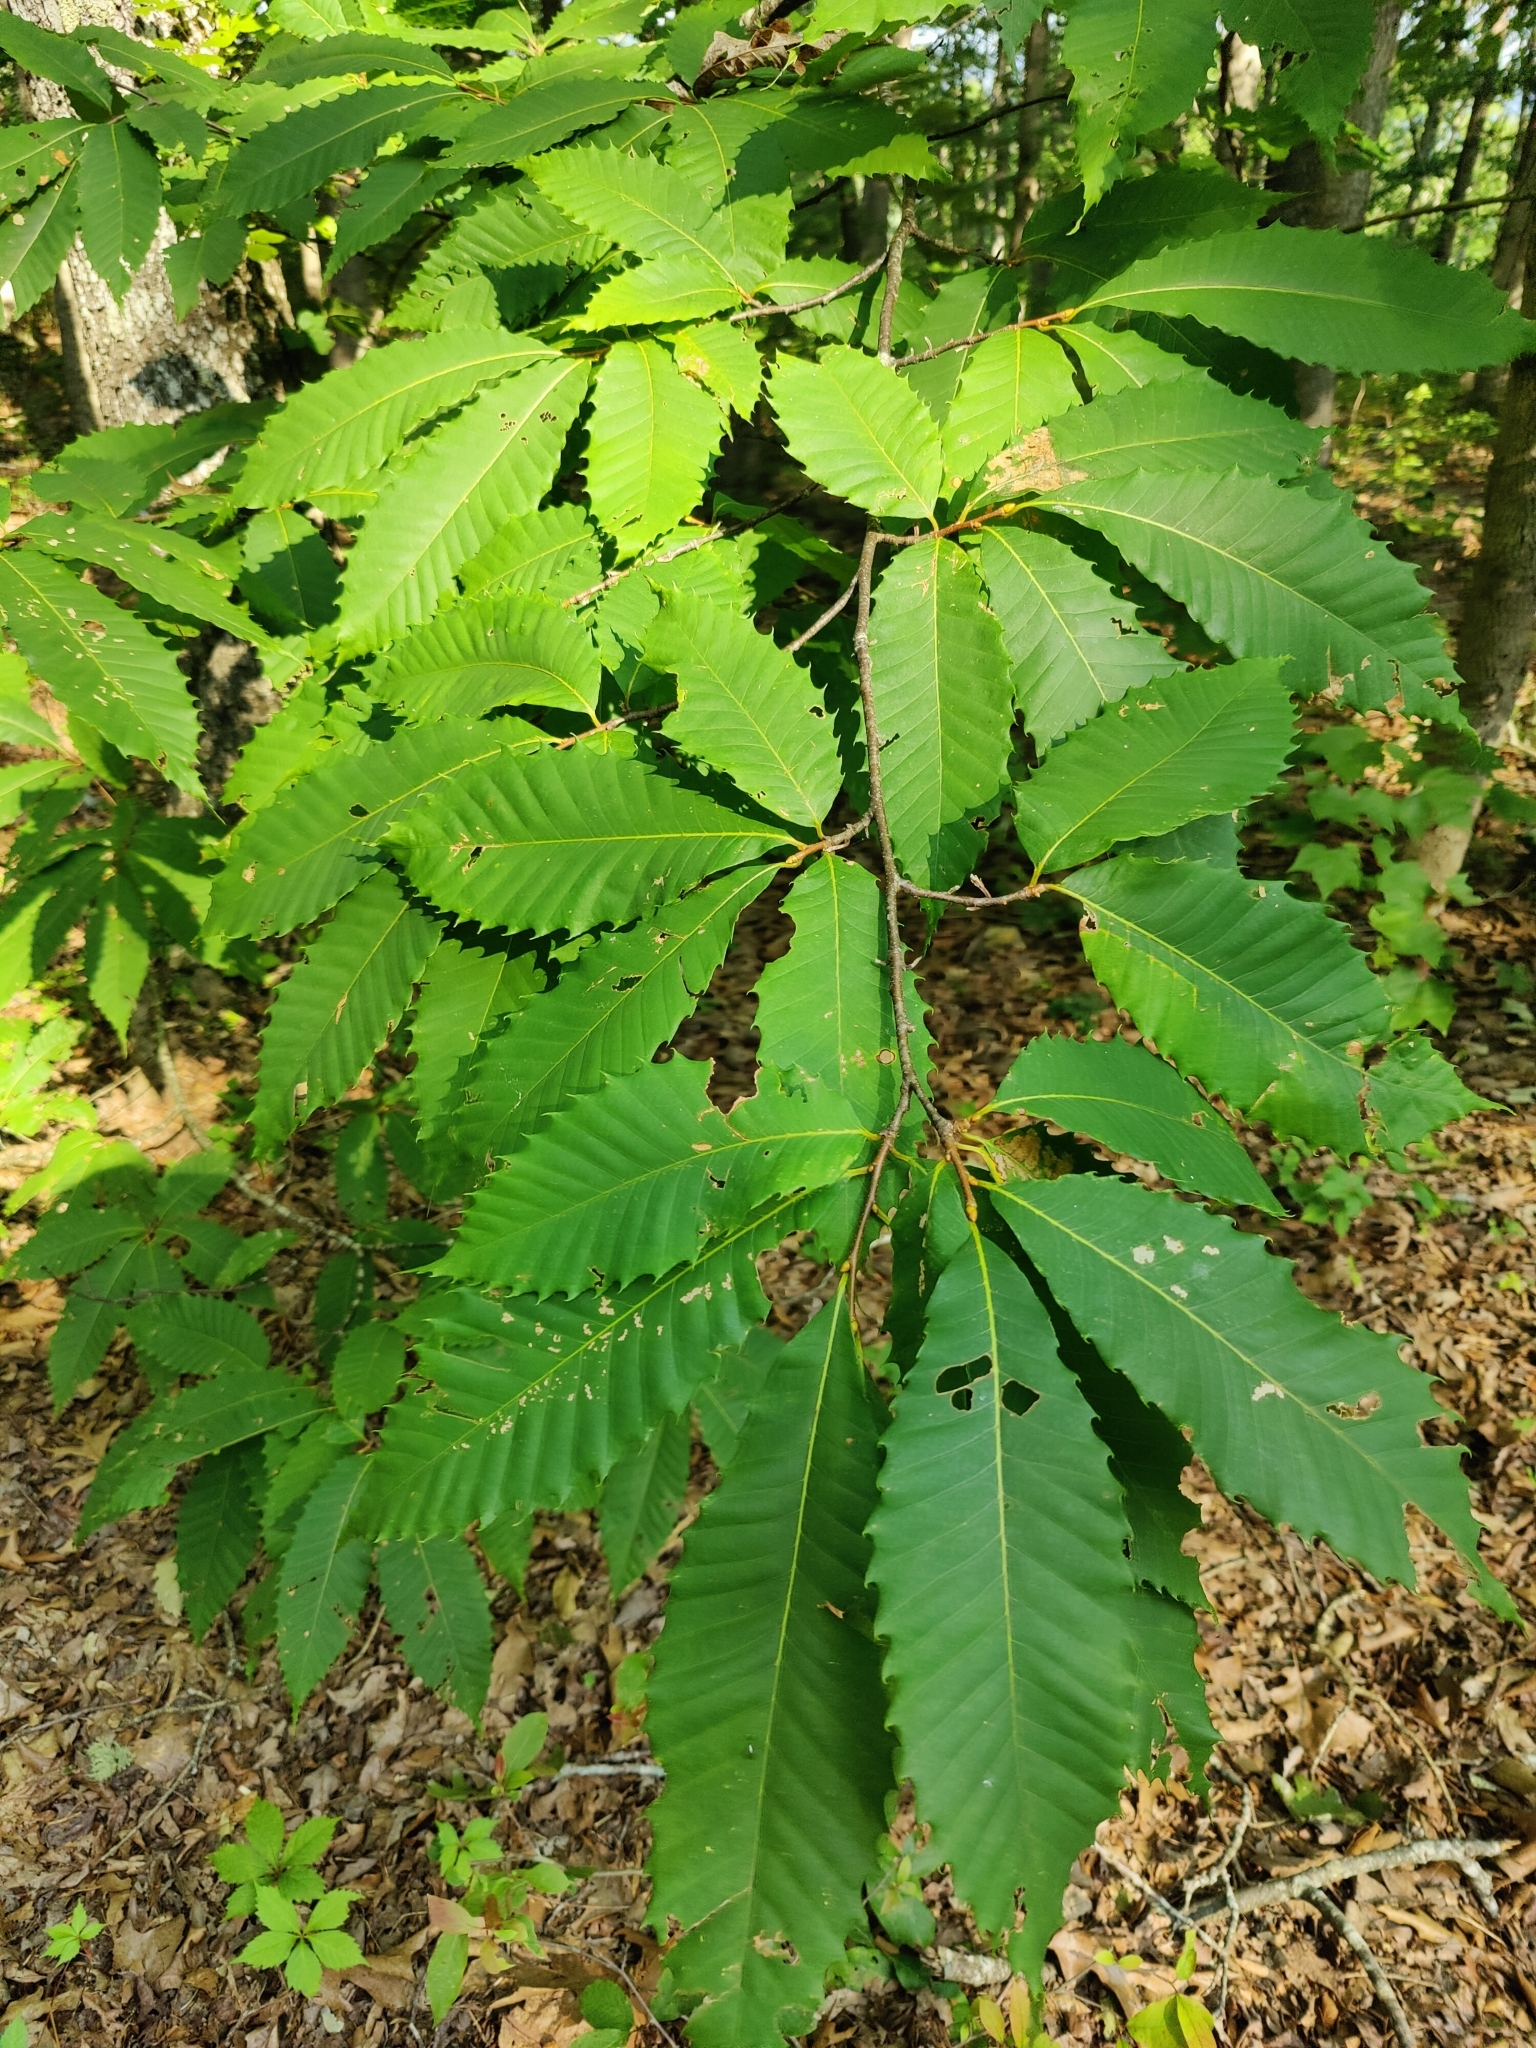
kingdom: Plantae
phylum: Tracheophyta
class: Magnoliopsida
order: Fagales
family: Fagaceae
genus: Castanea
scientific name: Castanea dentata
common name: American chestnut
